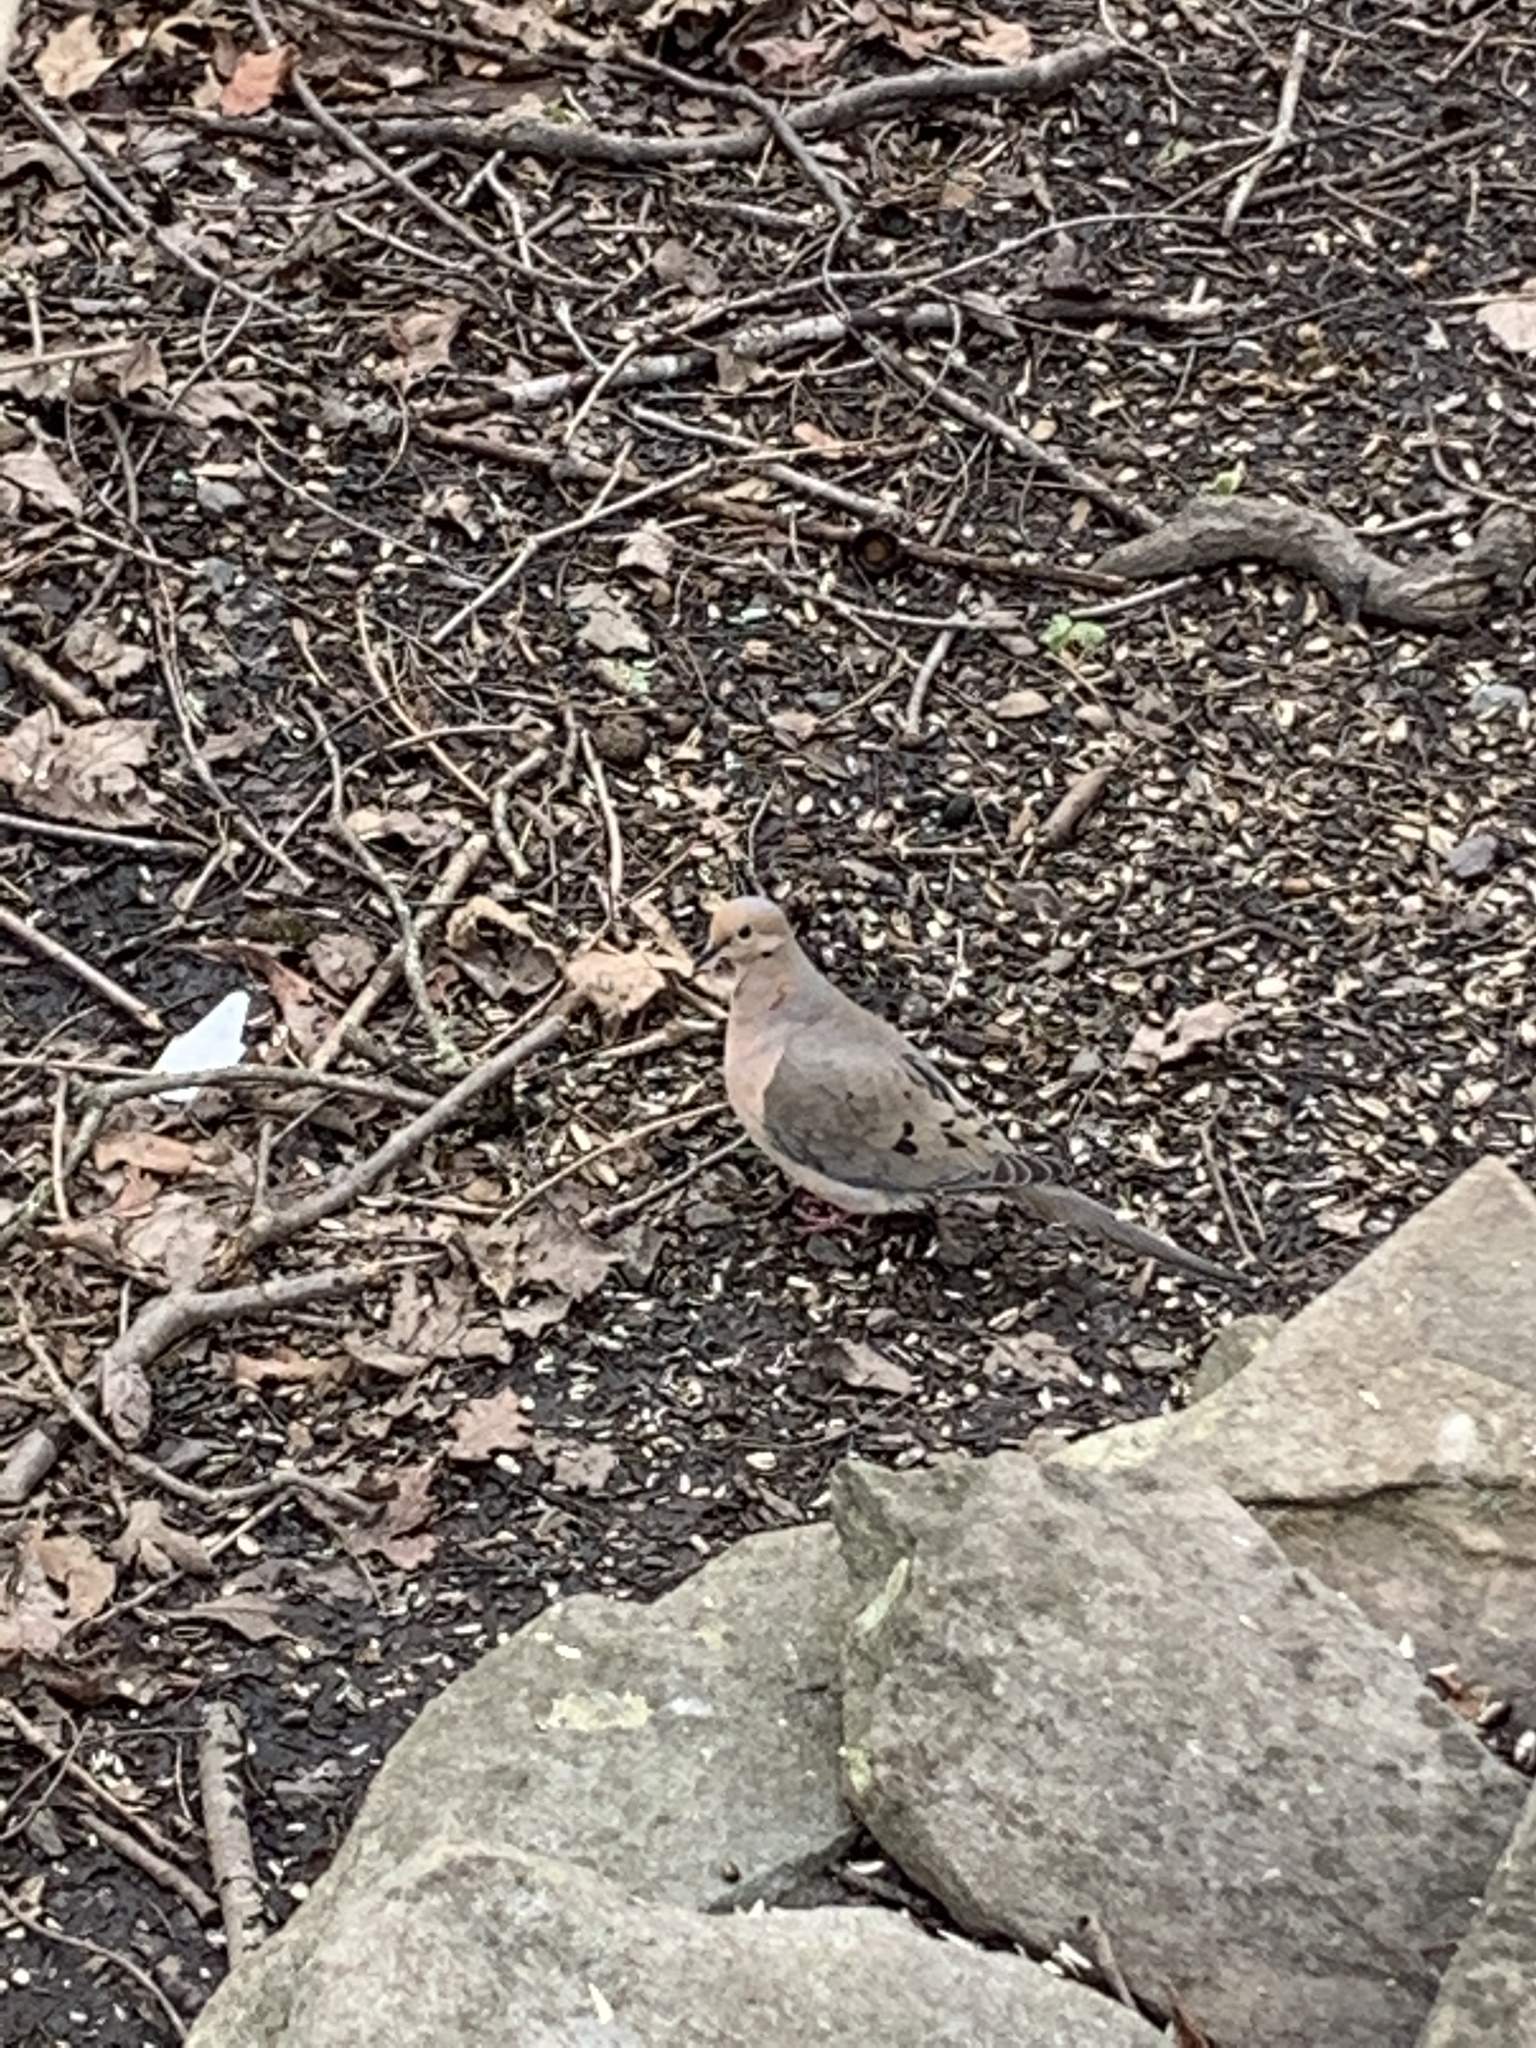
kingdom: Animalia
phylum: Chordata
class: Aves
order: Columbiformes
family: Columbidae
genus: Zenaida
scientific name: Zenaida macroura
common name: Mourning dove
